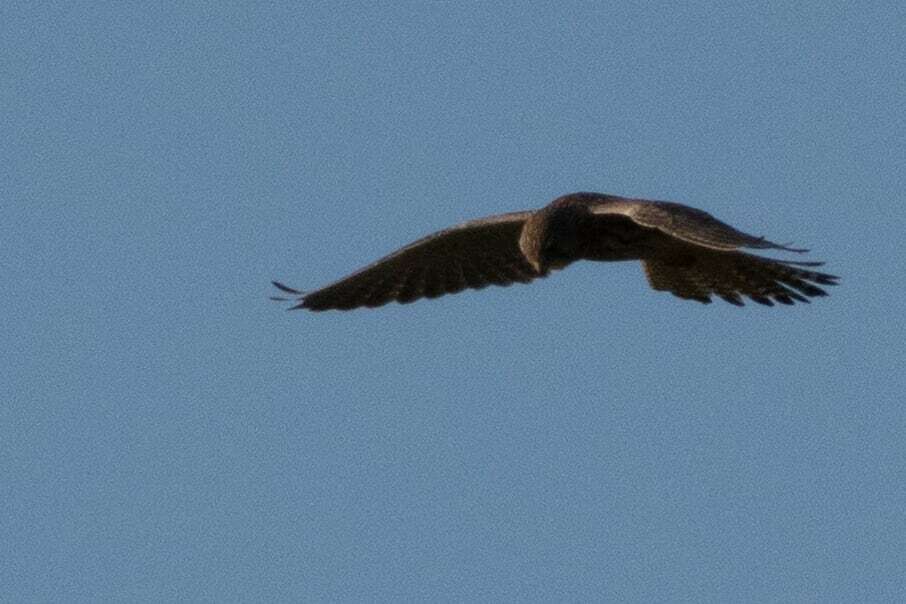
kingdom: Animalia
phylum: Chordata
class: Aves
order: Falconiformes
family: Falconidae
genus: Falco
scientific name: Falco tinnunculus
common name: Common kestrel
